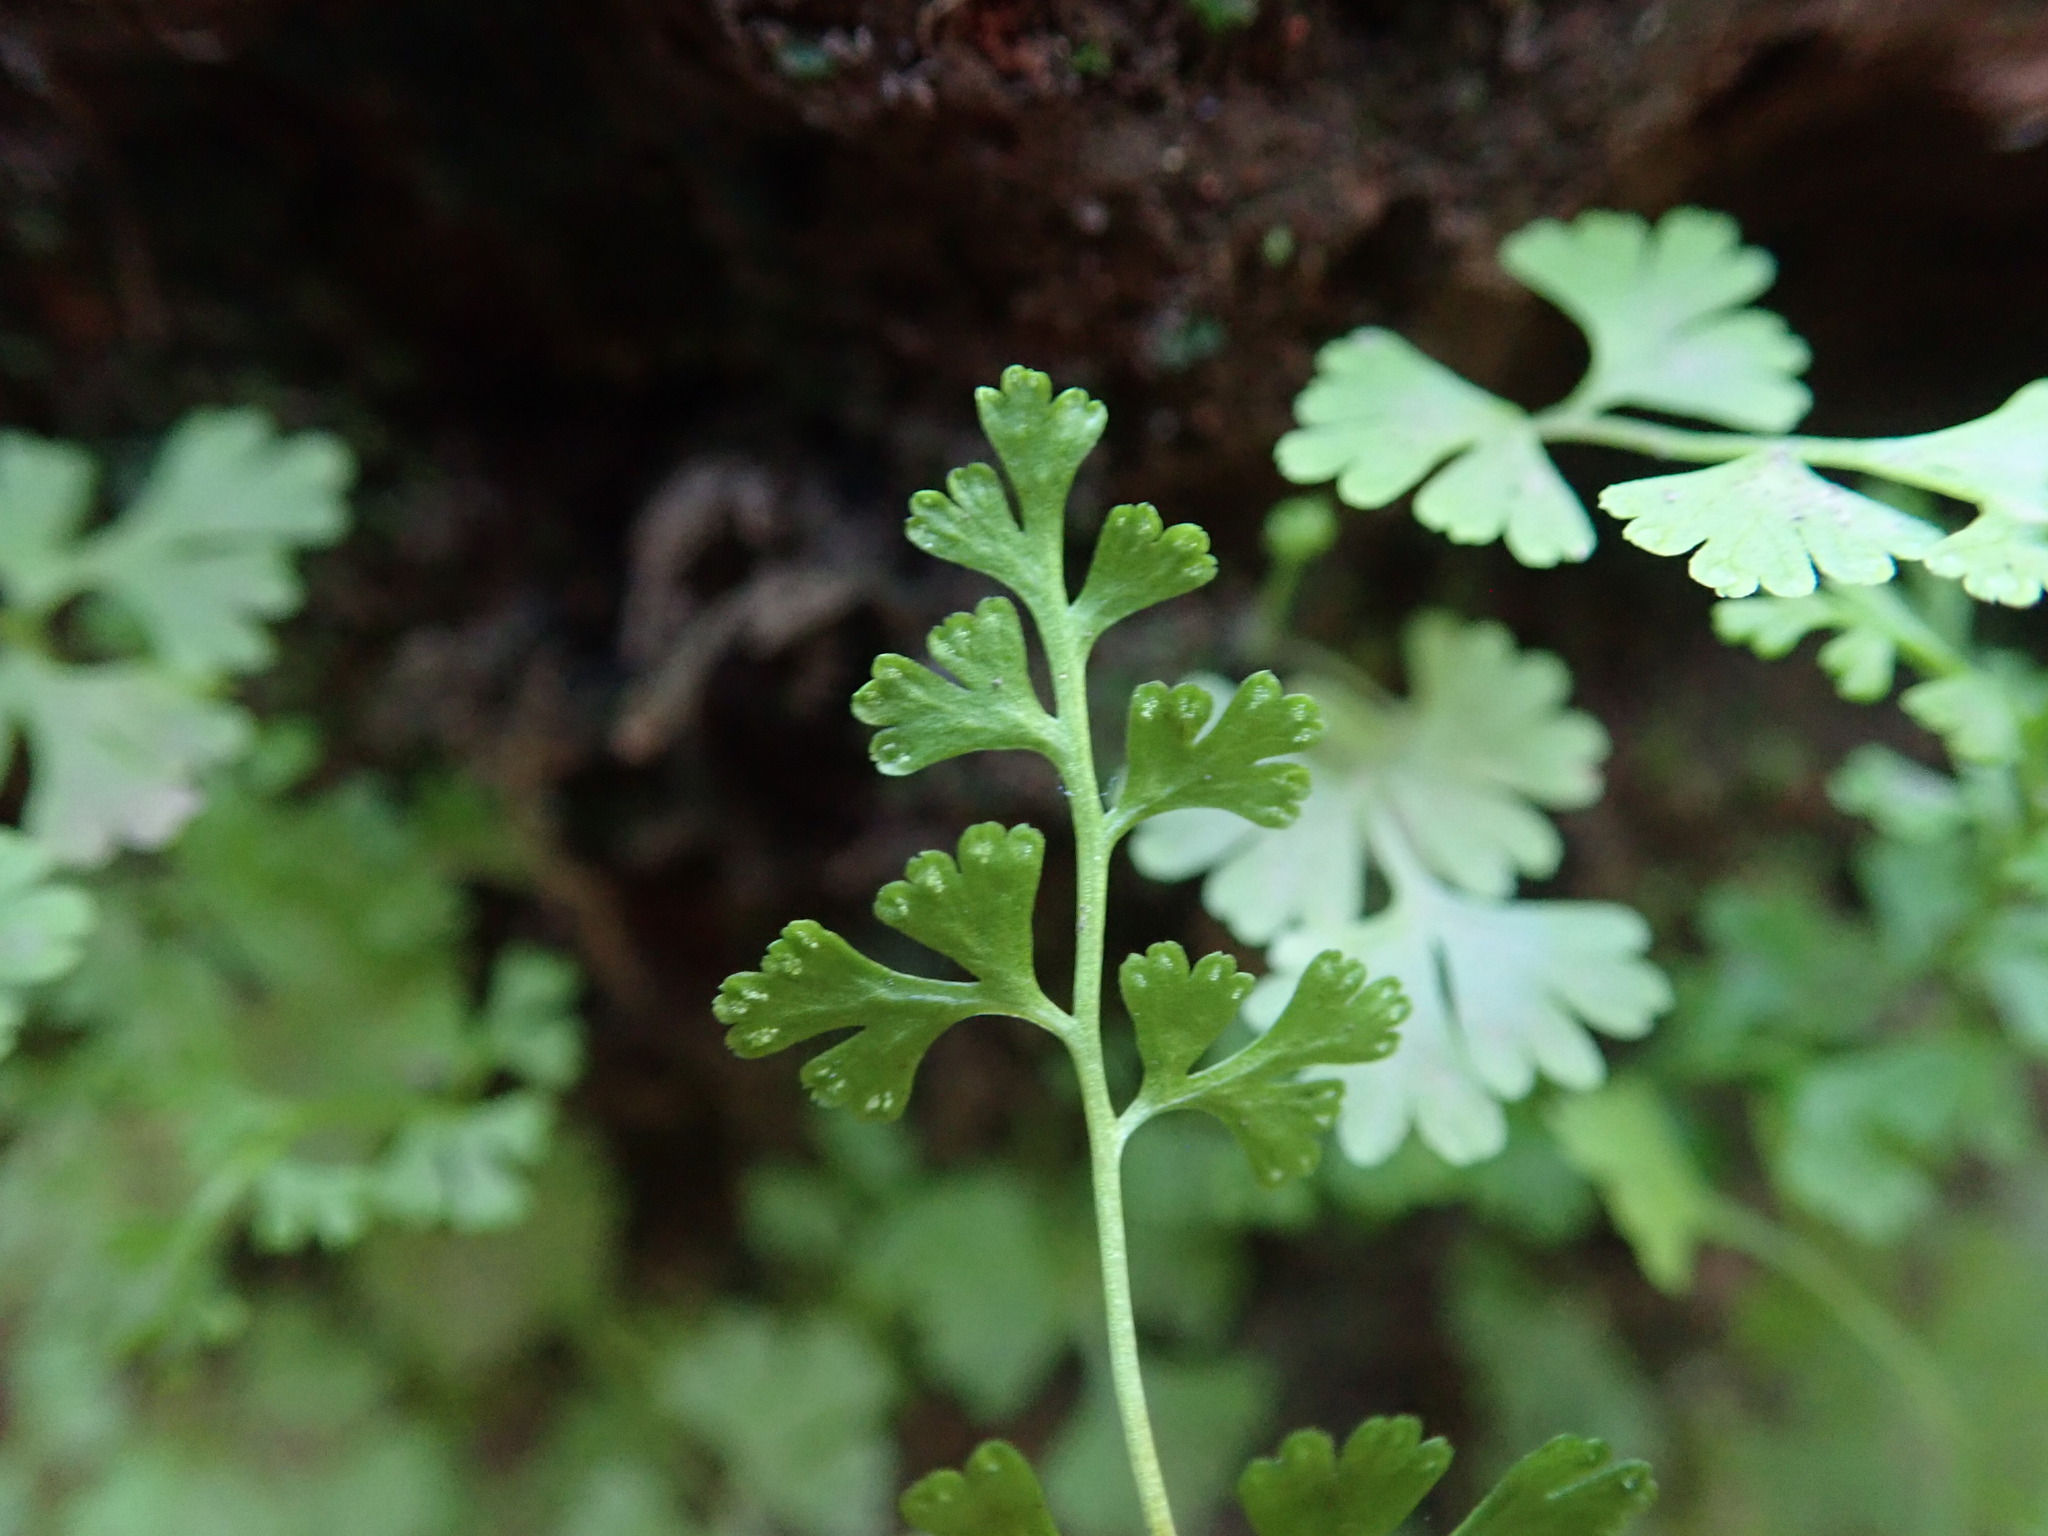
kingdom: Plantae
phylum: Tracheophyta
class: Polypodiopsida
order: Polypodiales
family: Pteridaceae
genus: Anogramma
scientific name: Anogramma leptophylla
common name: Jersey fern
